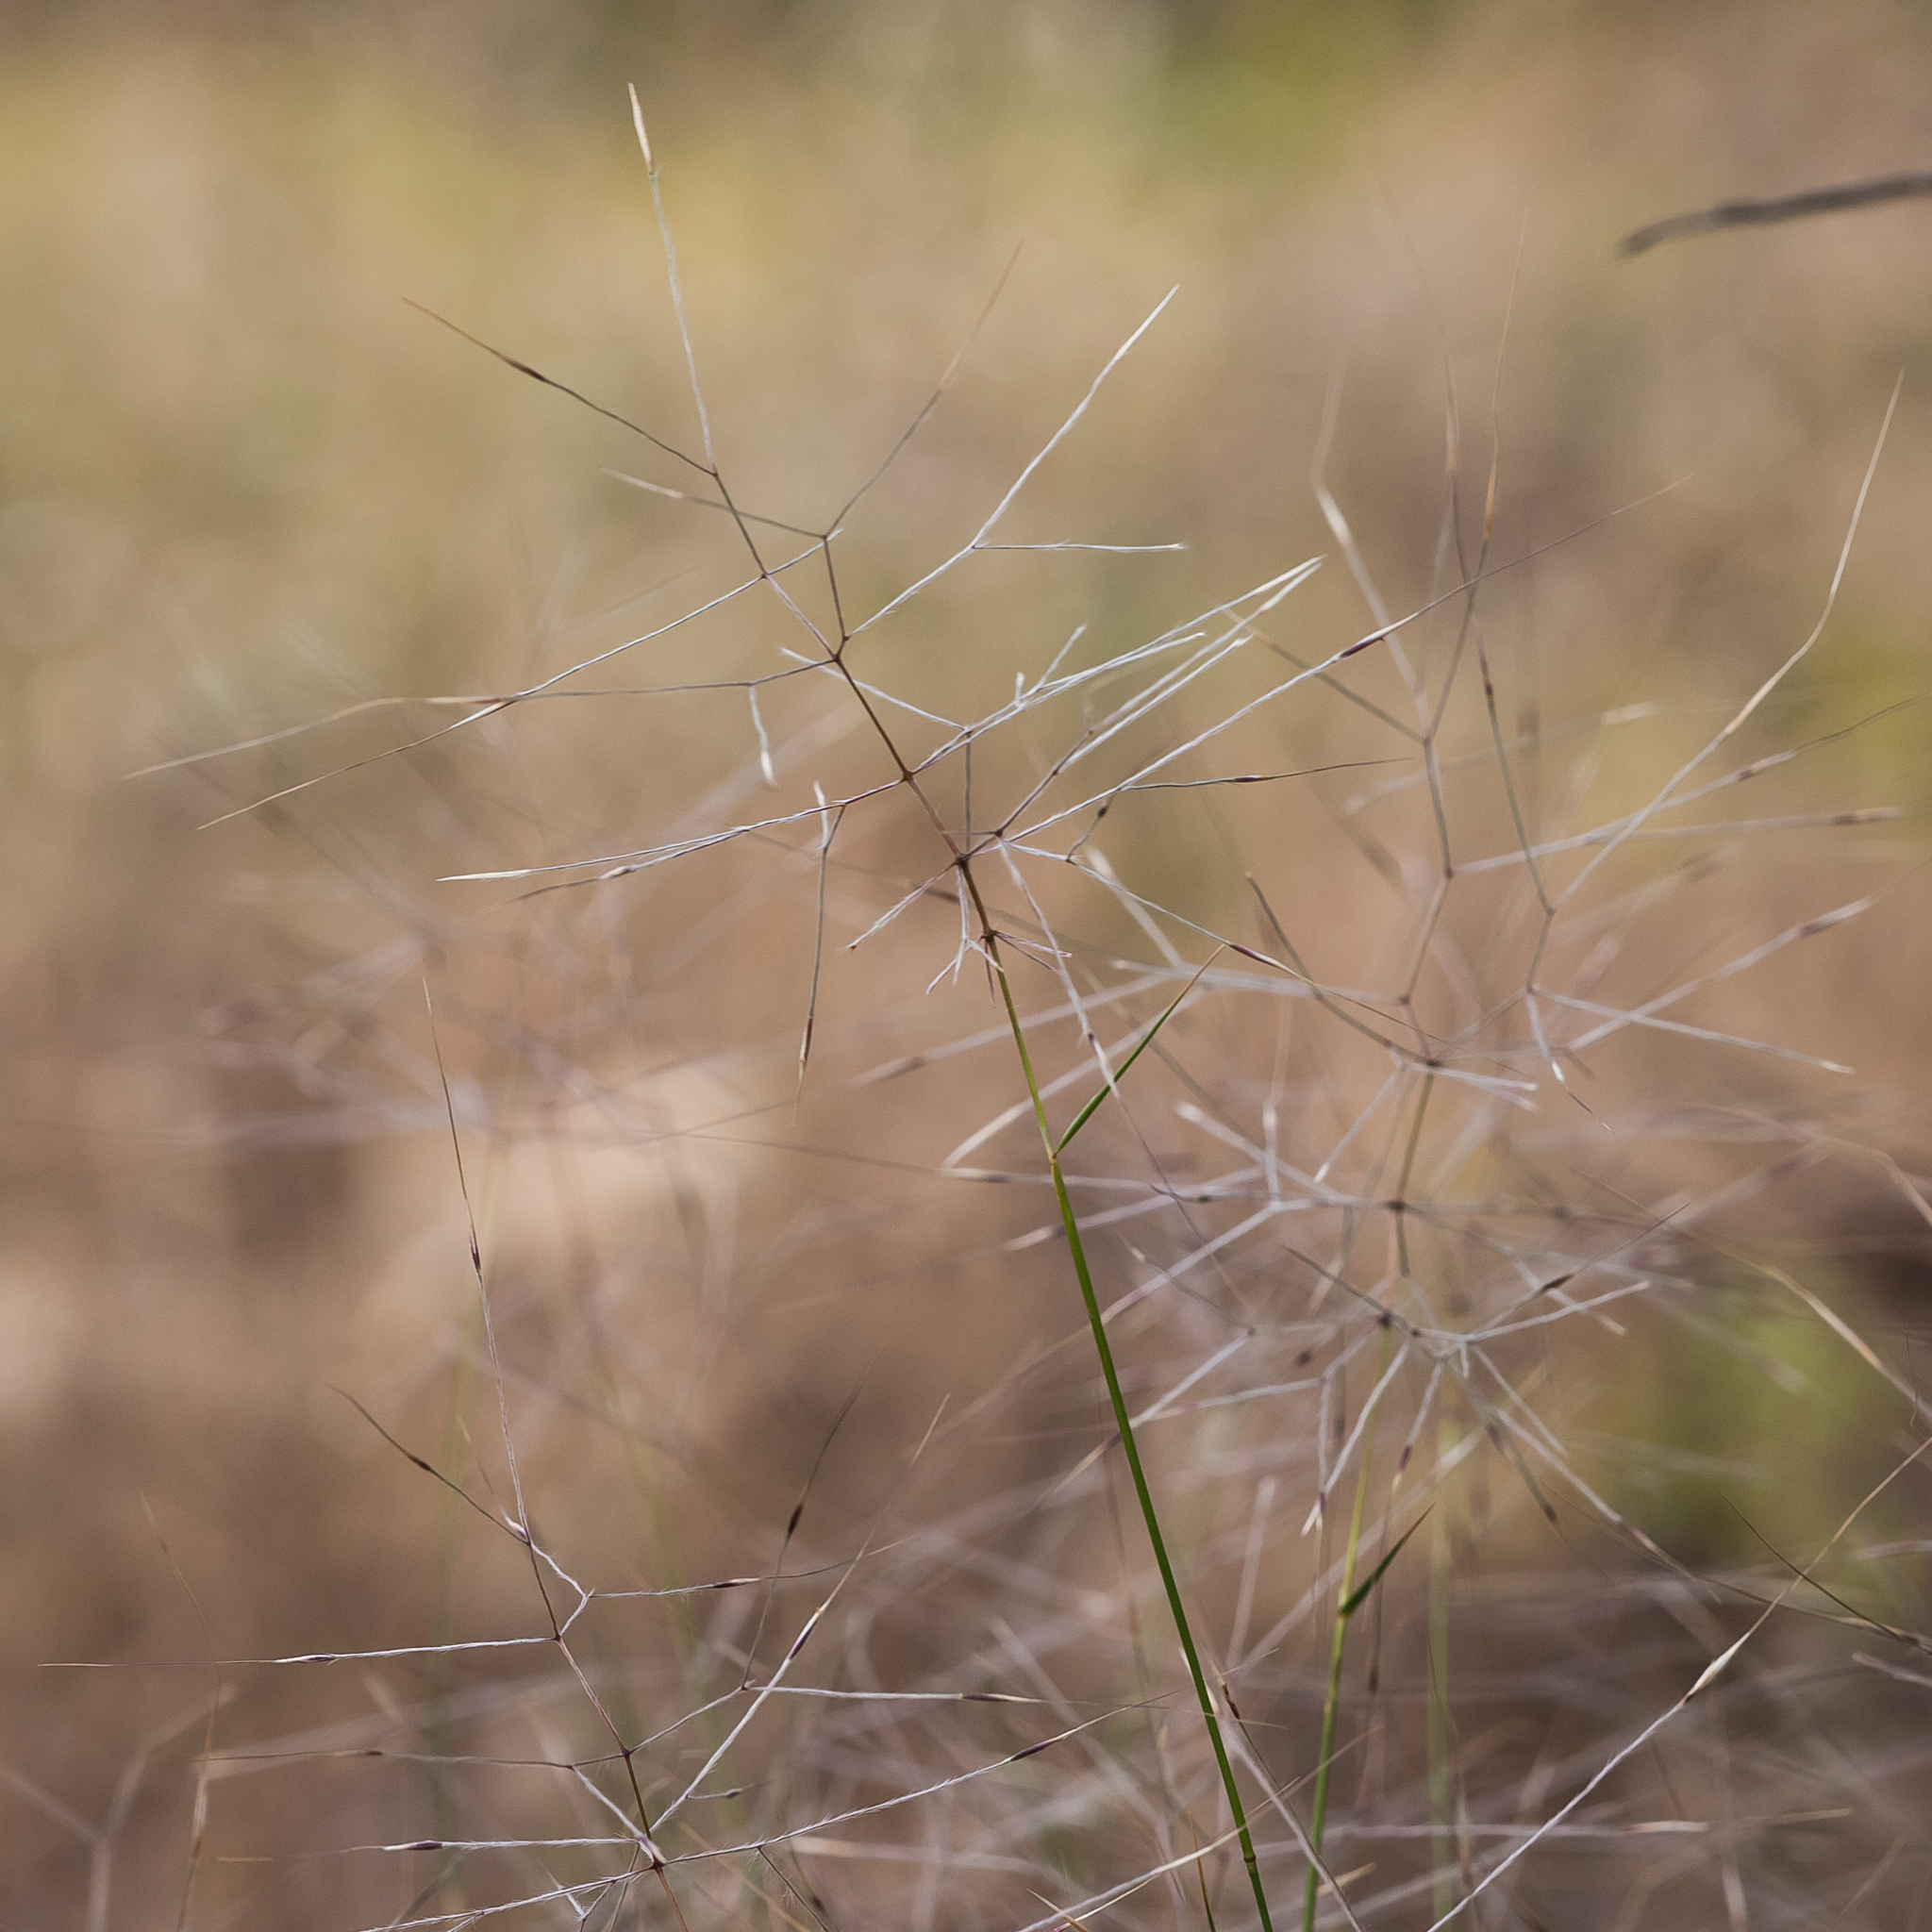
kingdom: Plantae
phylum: Tracheophyta
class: Liliopsida
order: Poales
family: Poaceae
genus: Austrostipa
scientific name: Austrostipa elegantissima
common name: Feather spear grass
